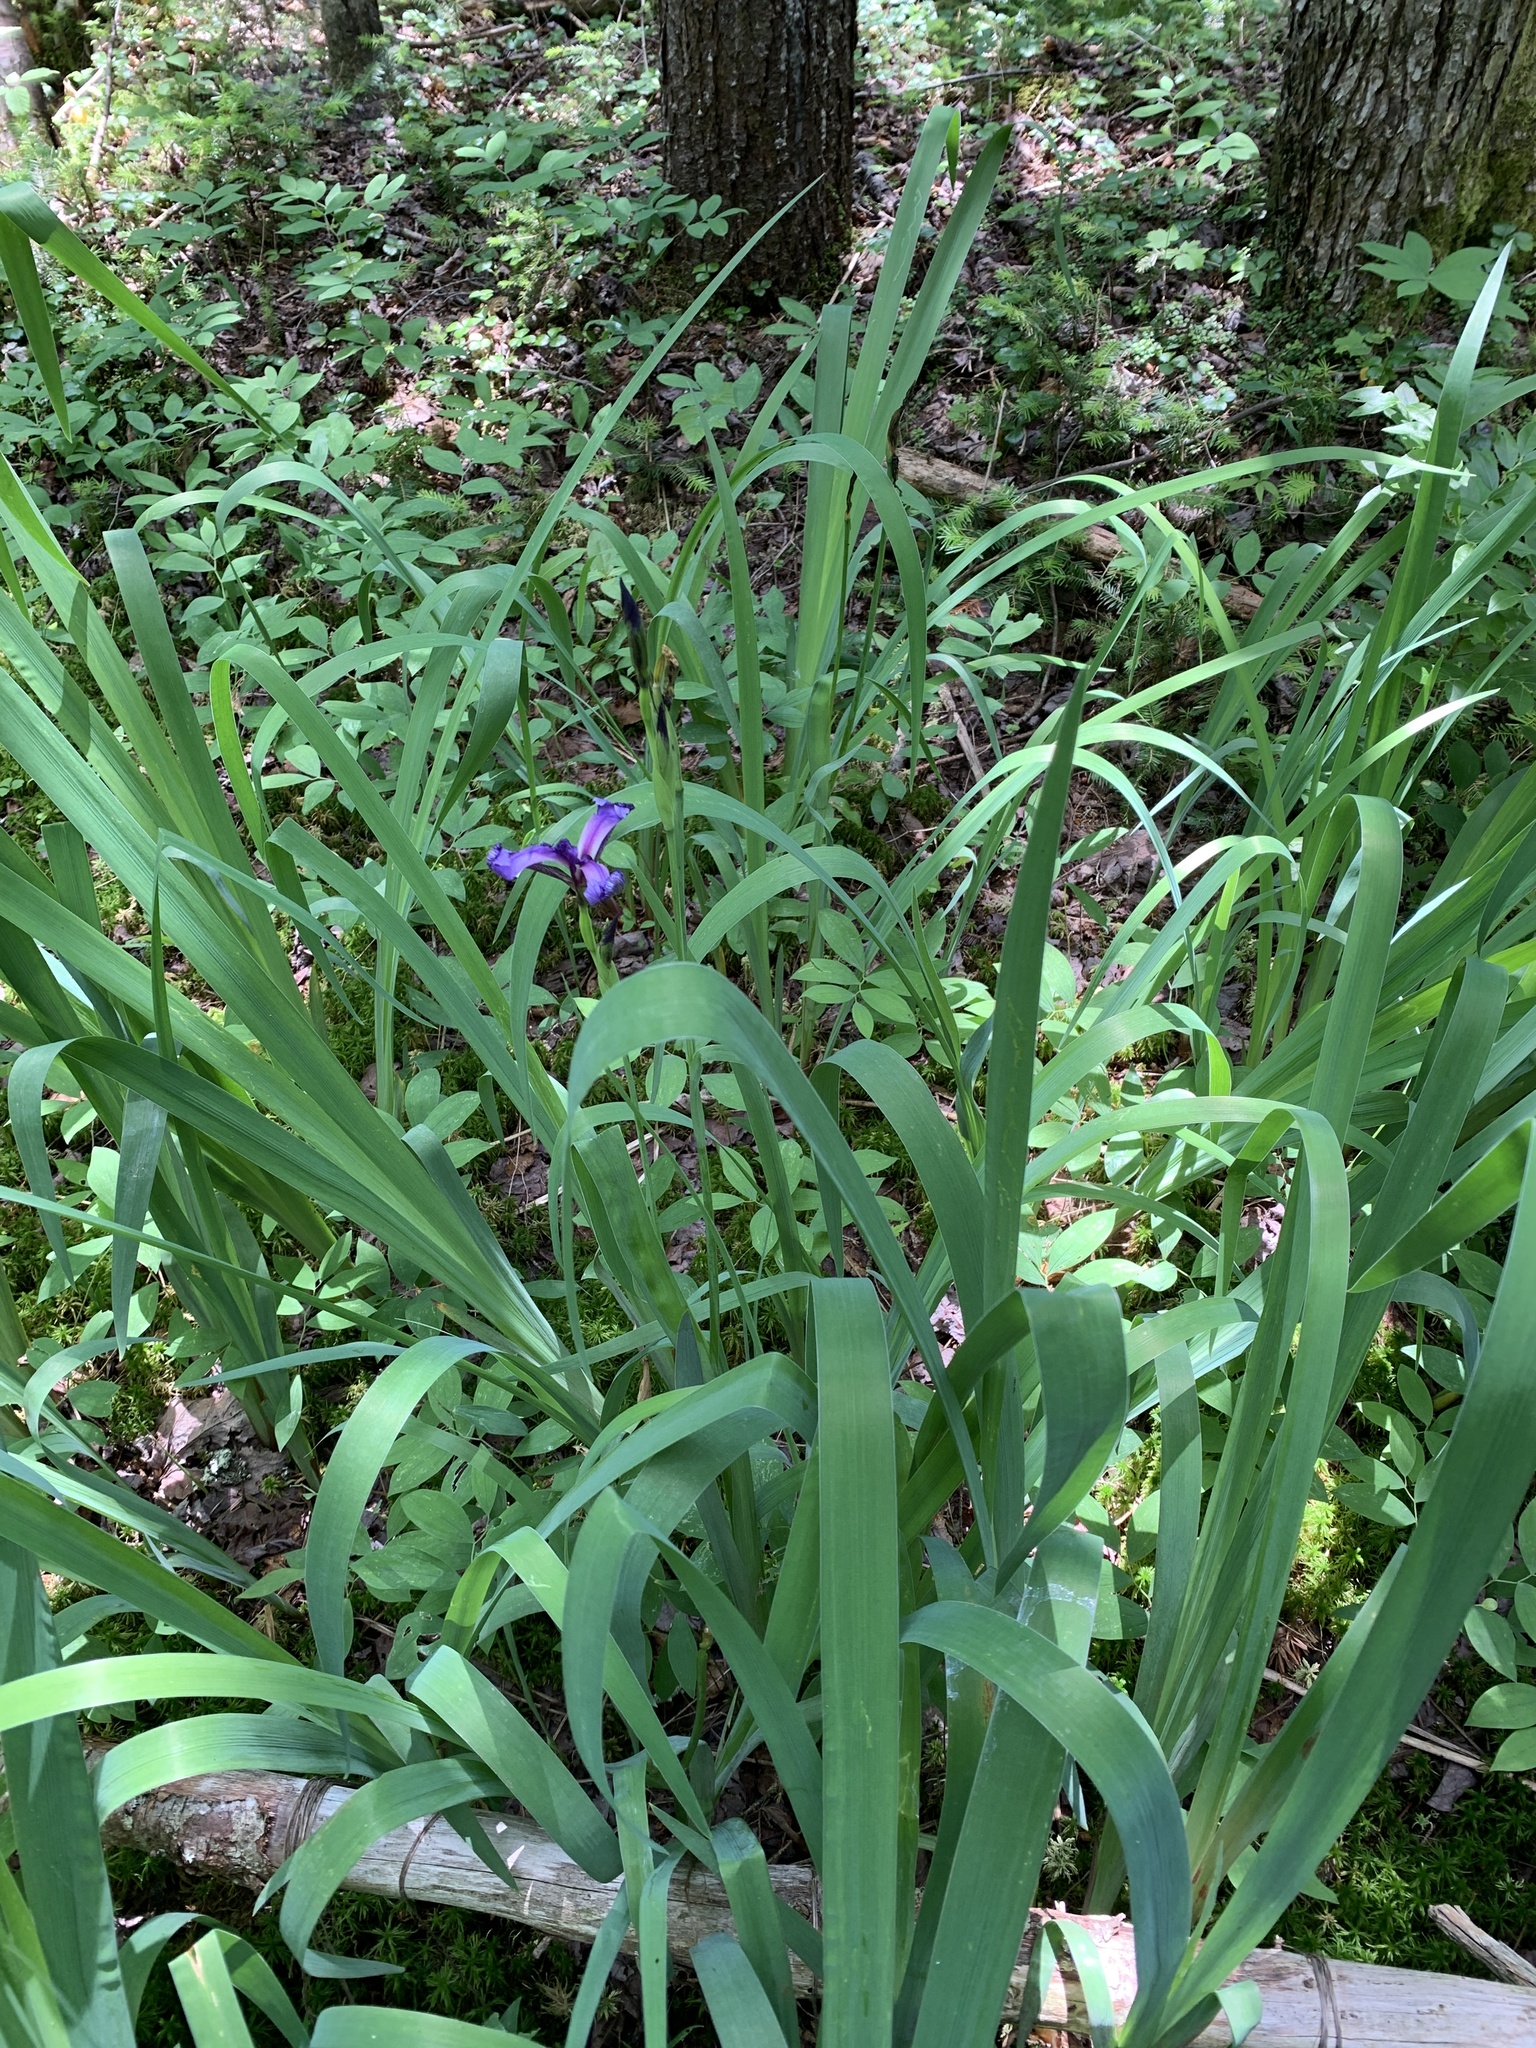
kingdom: Plantae
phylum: Tracheophyta
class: Liliopsida
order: Asparagales
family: Iridaceae
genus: Iris
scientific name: Iris versicolor
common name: Purple iris
